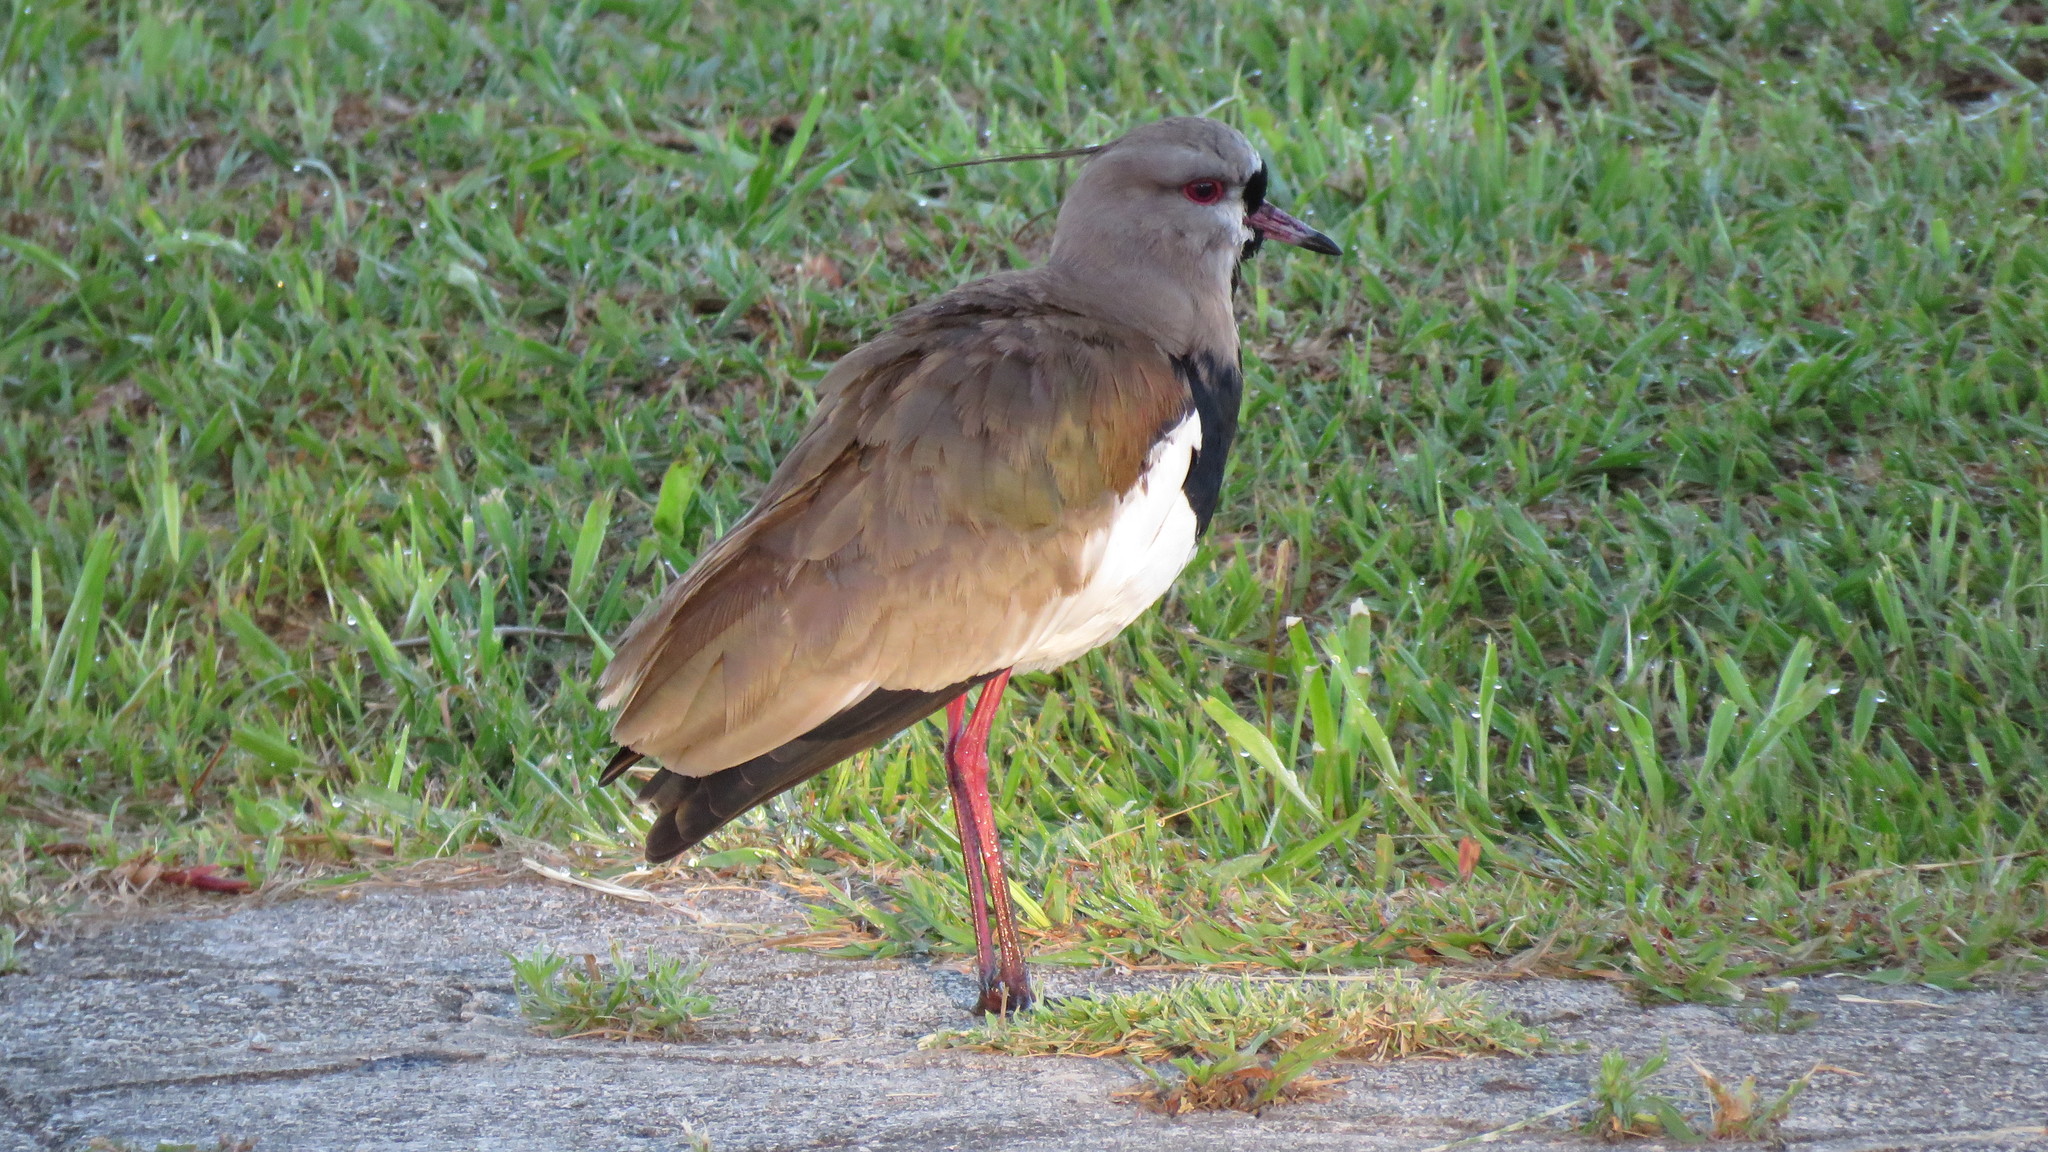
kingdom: Animalia
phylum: Chordata
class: Aves
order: Charadriiformes
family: Charadriidae
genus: Vanellus
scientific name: Vanellus chilensis
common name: Southern lapwing
